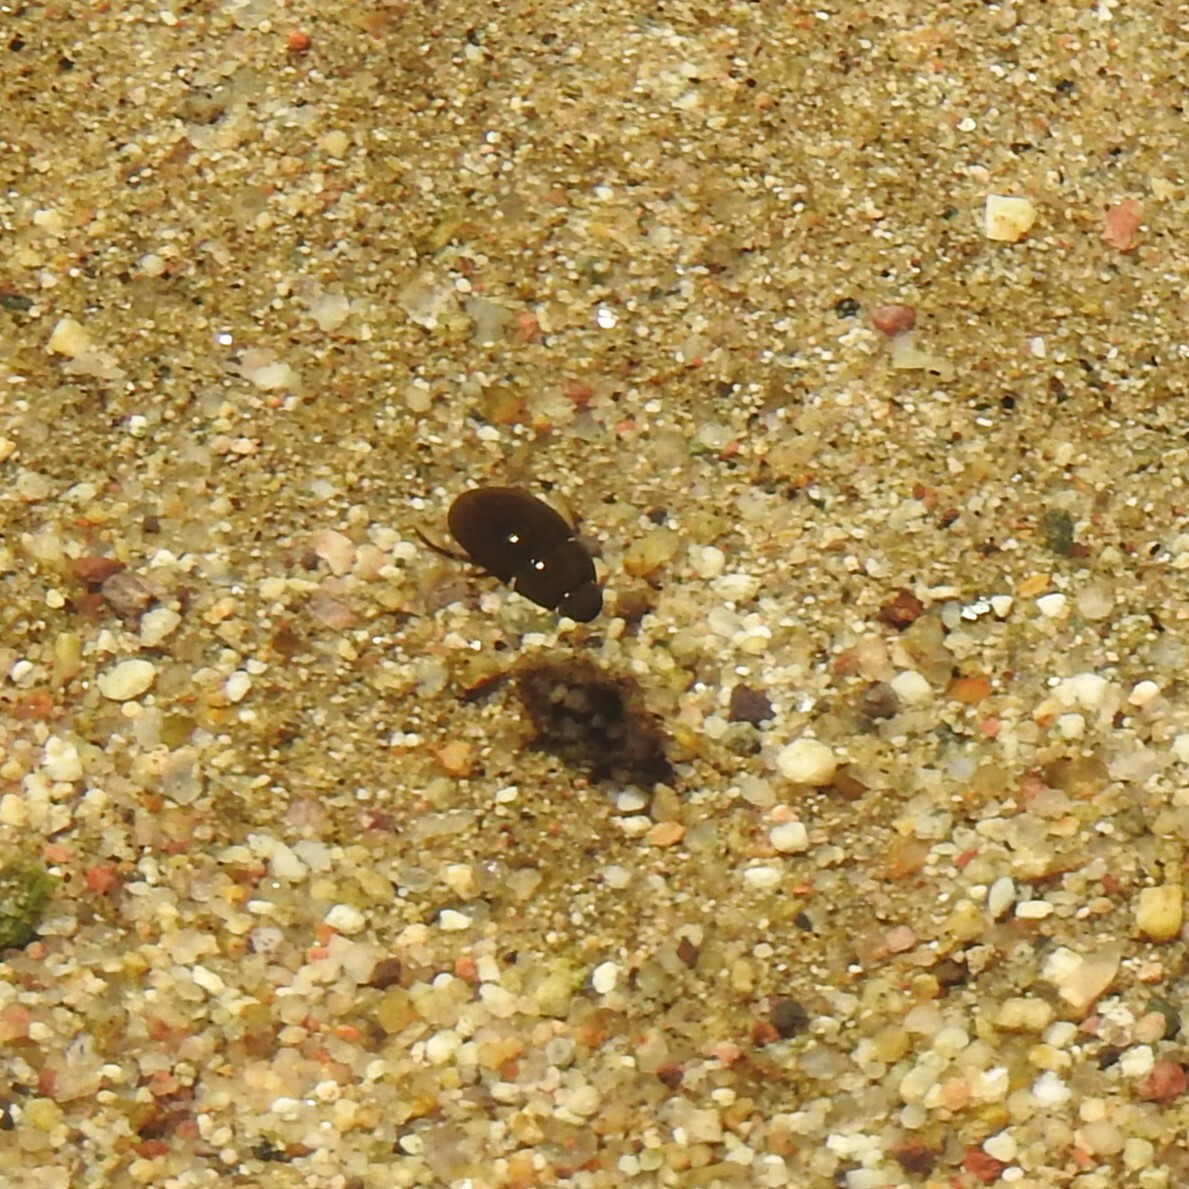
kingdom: Animalia
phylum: Arthropoda
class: Insecta
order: Coleoptera
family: Hydrophilidae
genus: Tropisternus
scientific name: Tropisternus
